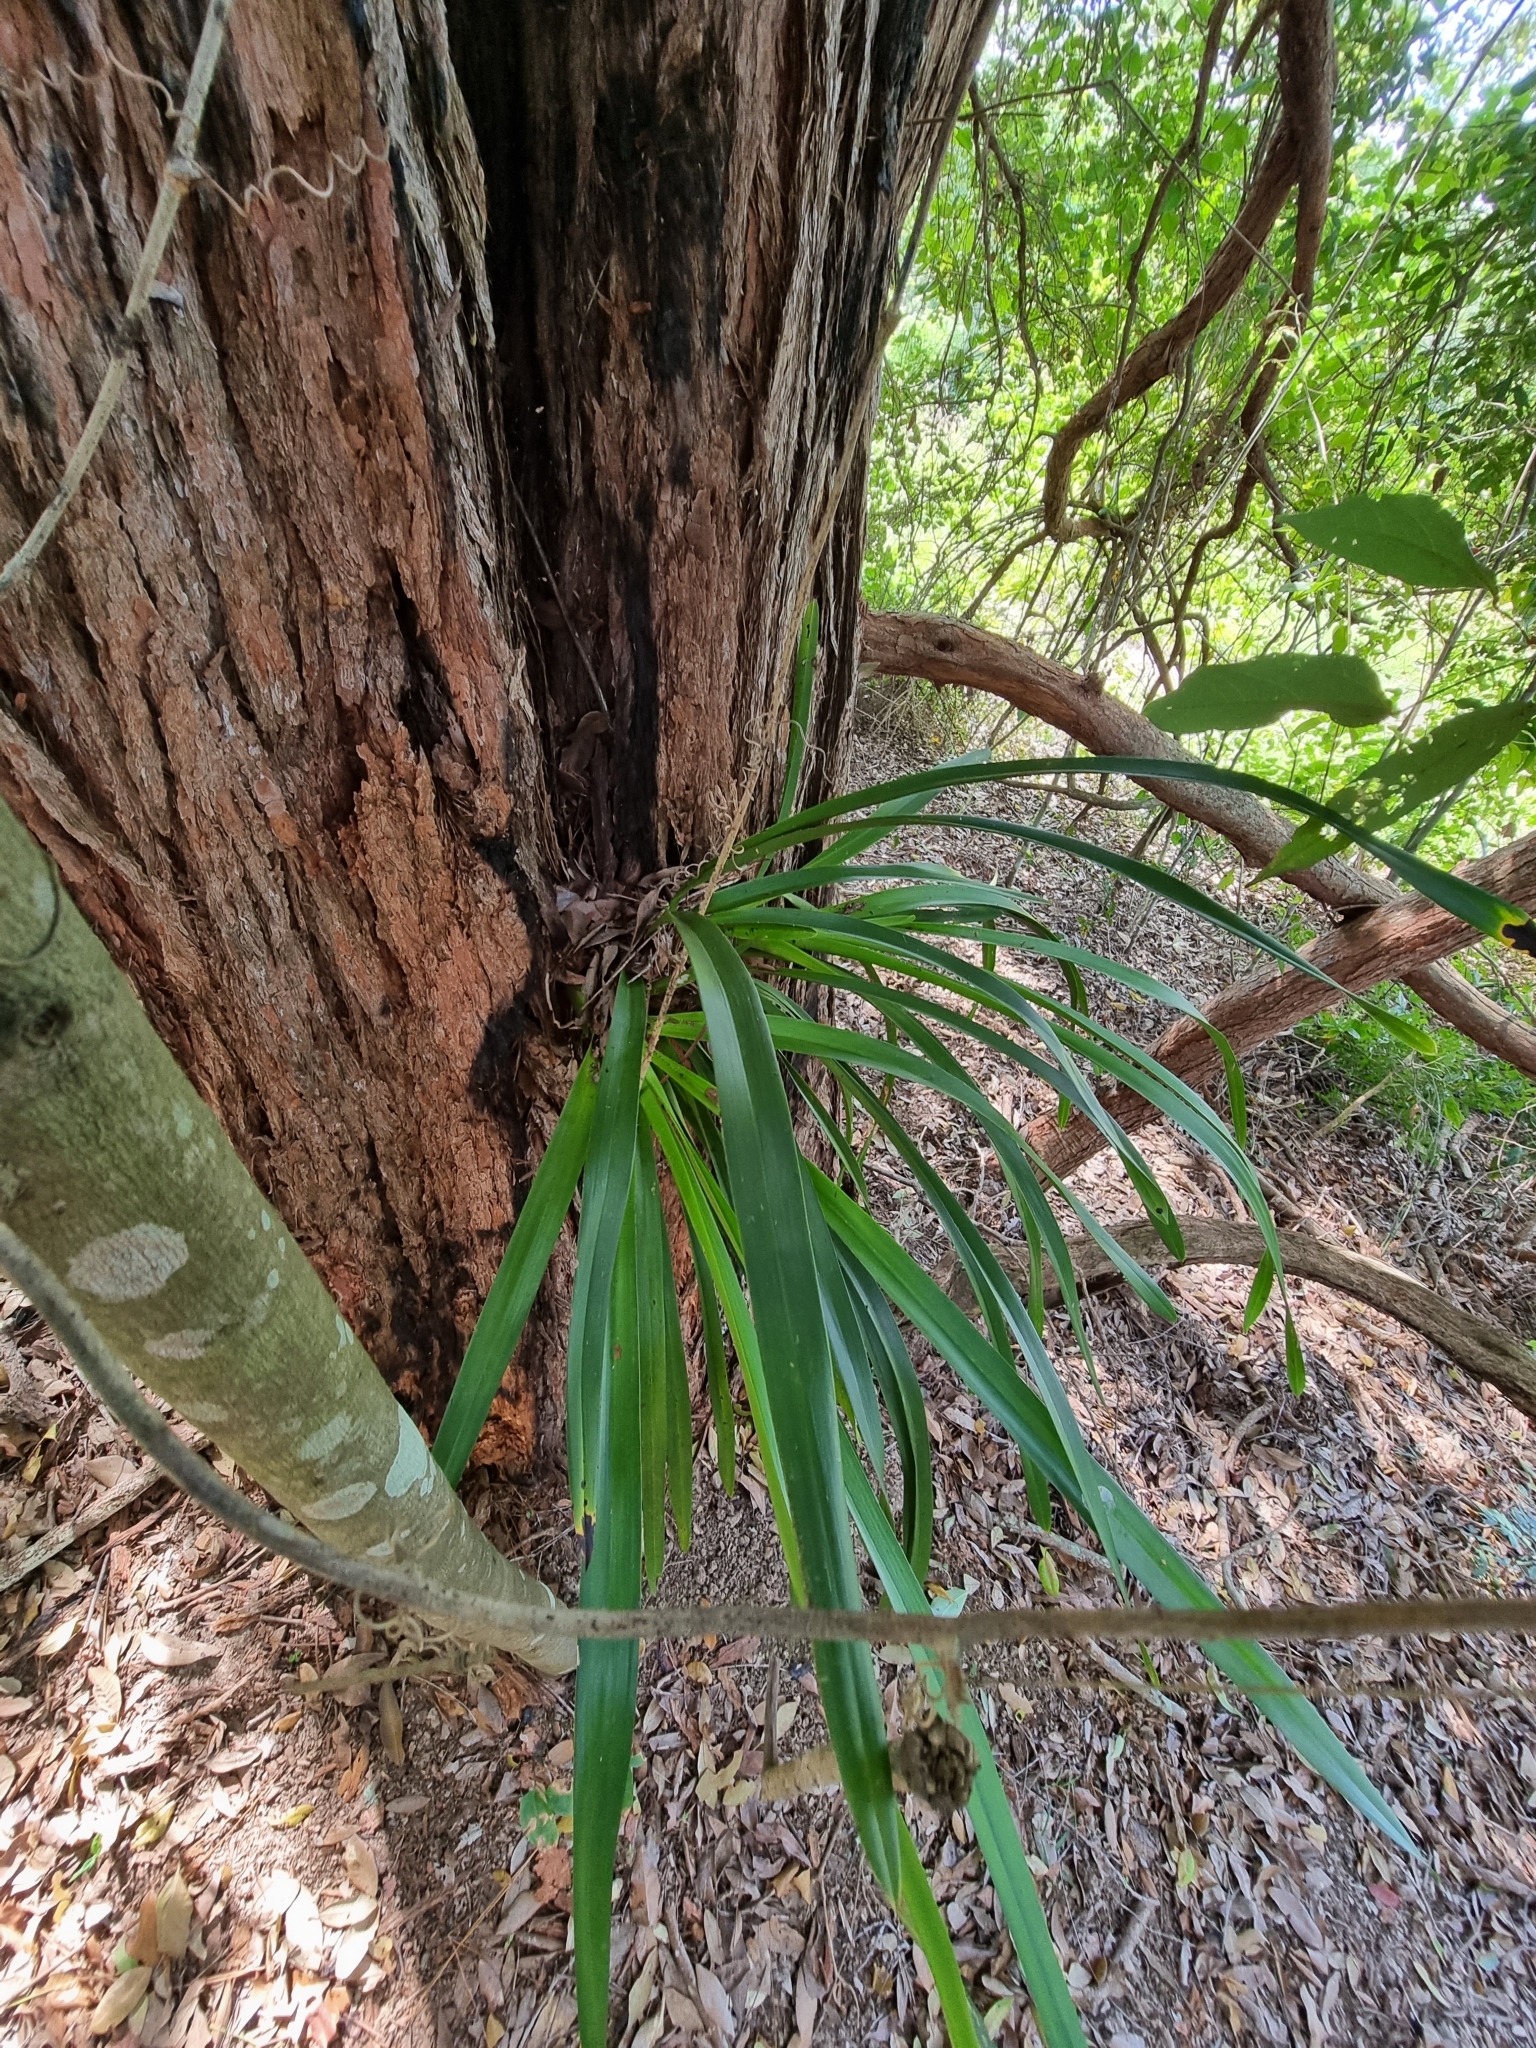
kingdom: Plantae
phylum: Tracheophyta
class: Liliopsida
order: Asparagales
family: Orchidaceae
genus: Cymbidium
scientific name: Cymbidium madidum
